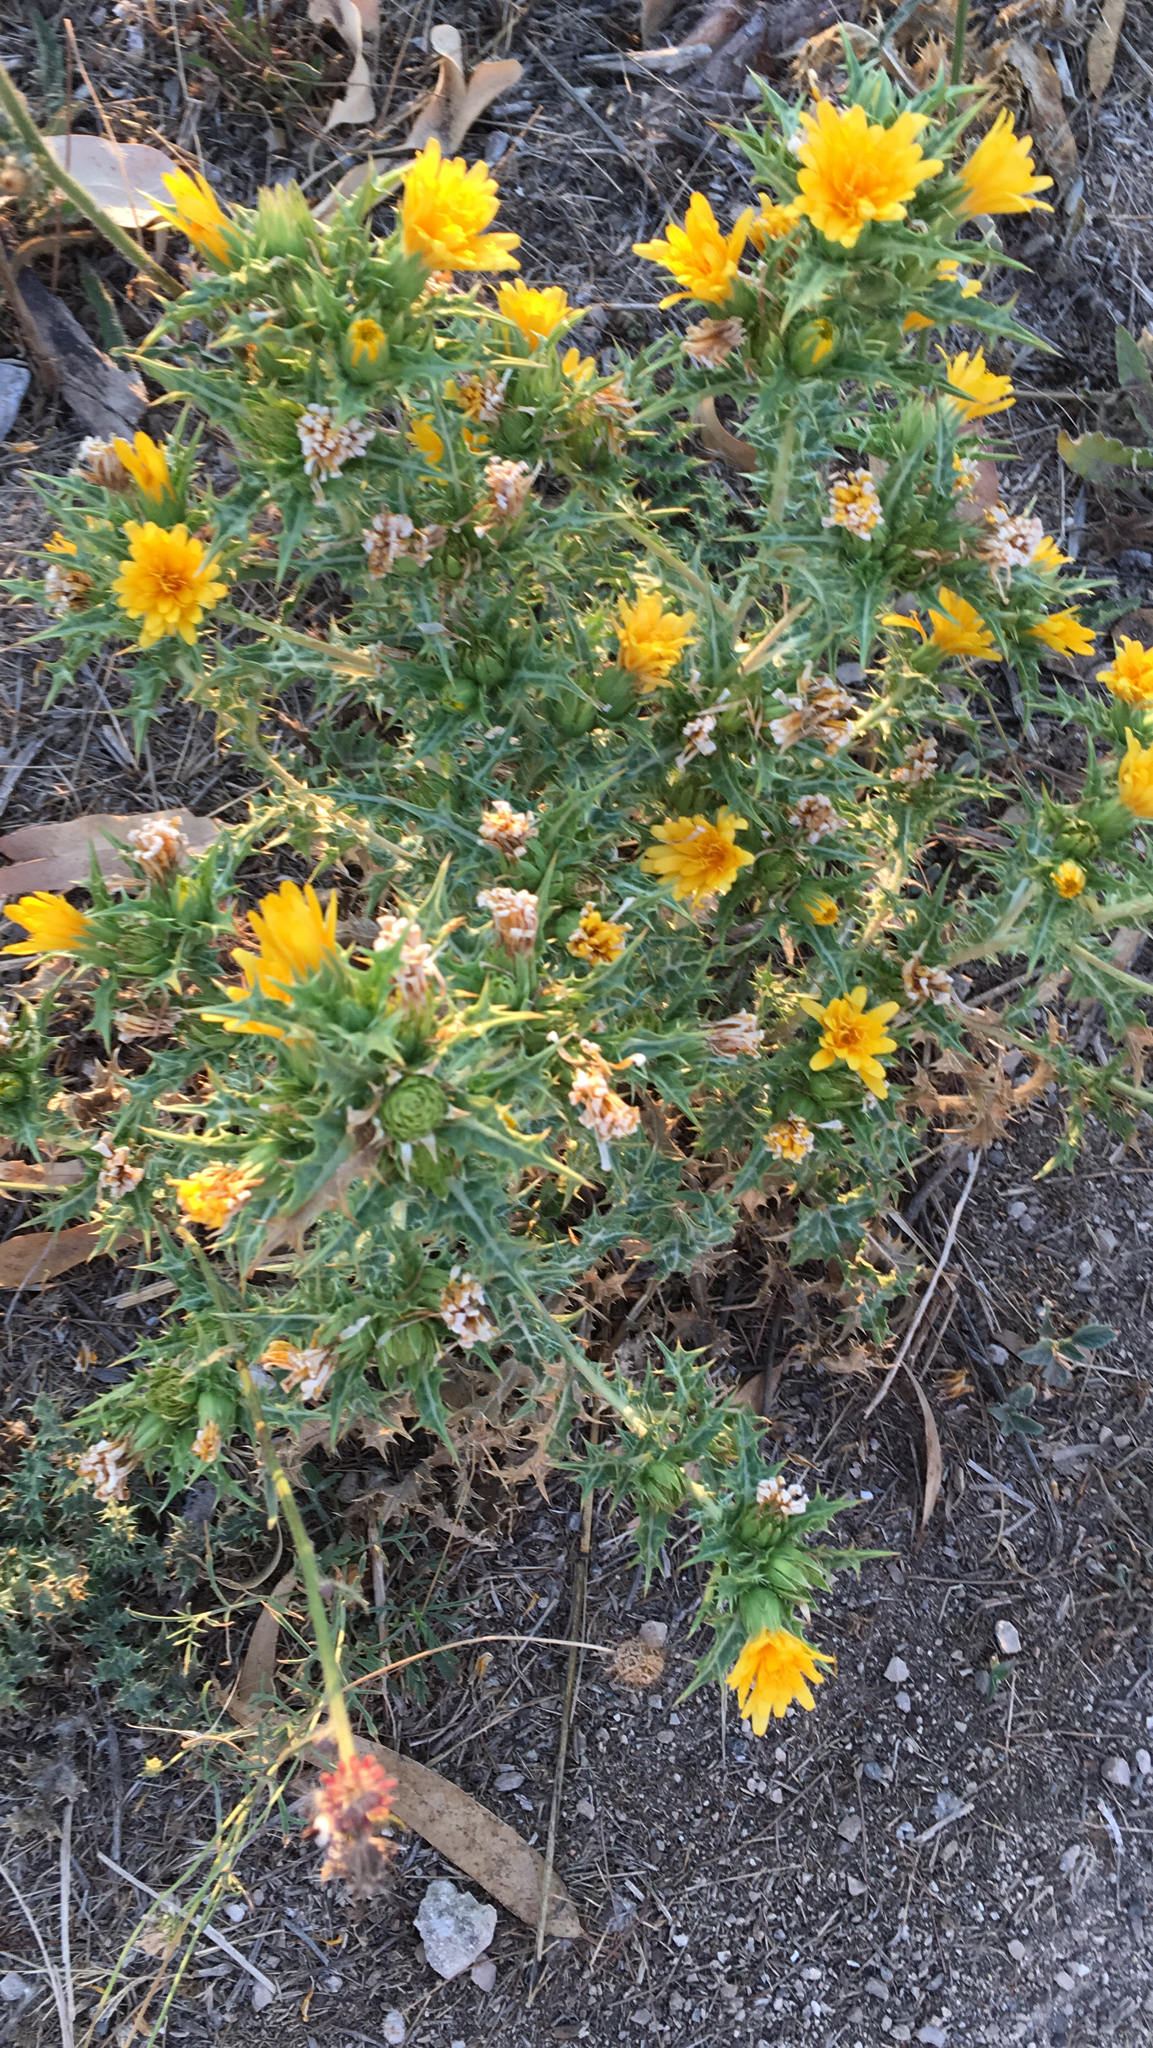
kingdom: Plantae
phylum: Tracheophyta
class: Magnoliopsida
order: Asterales
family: Asteraceae
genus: Scolymus
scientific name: Scolymus hispanicus
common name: Golden thistle
